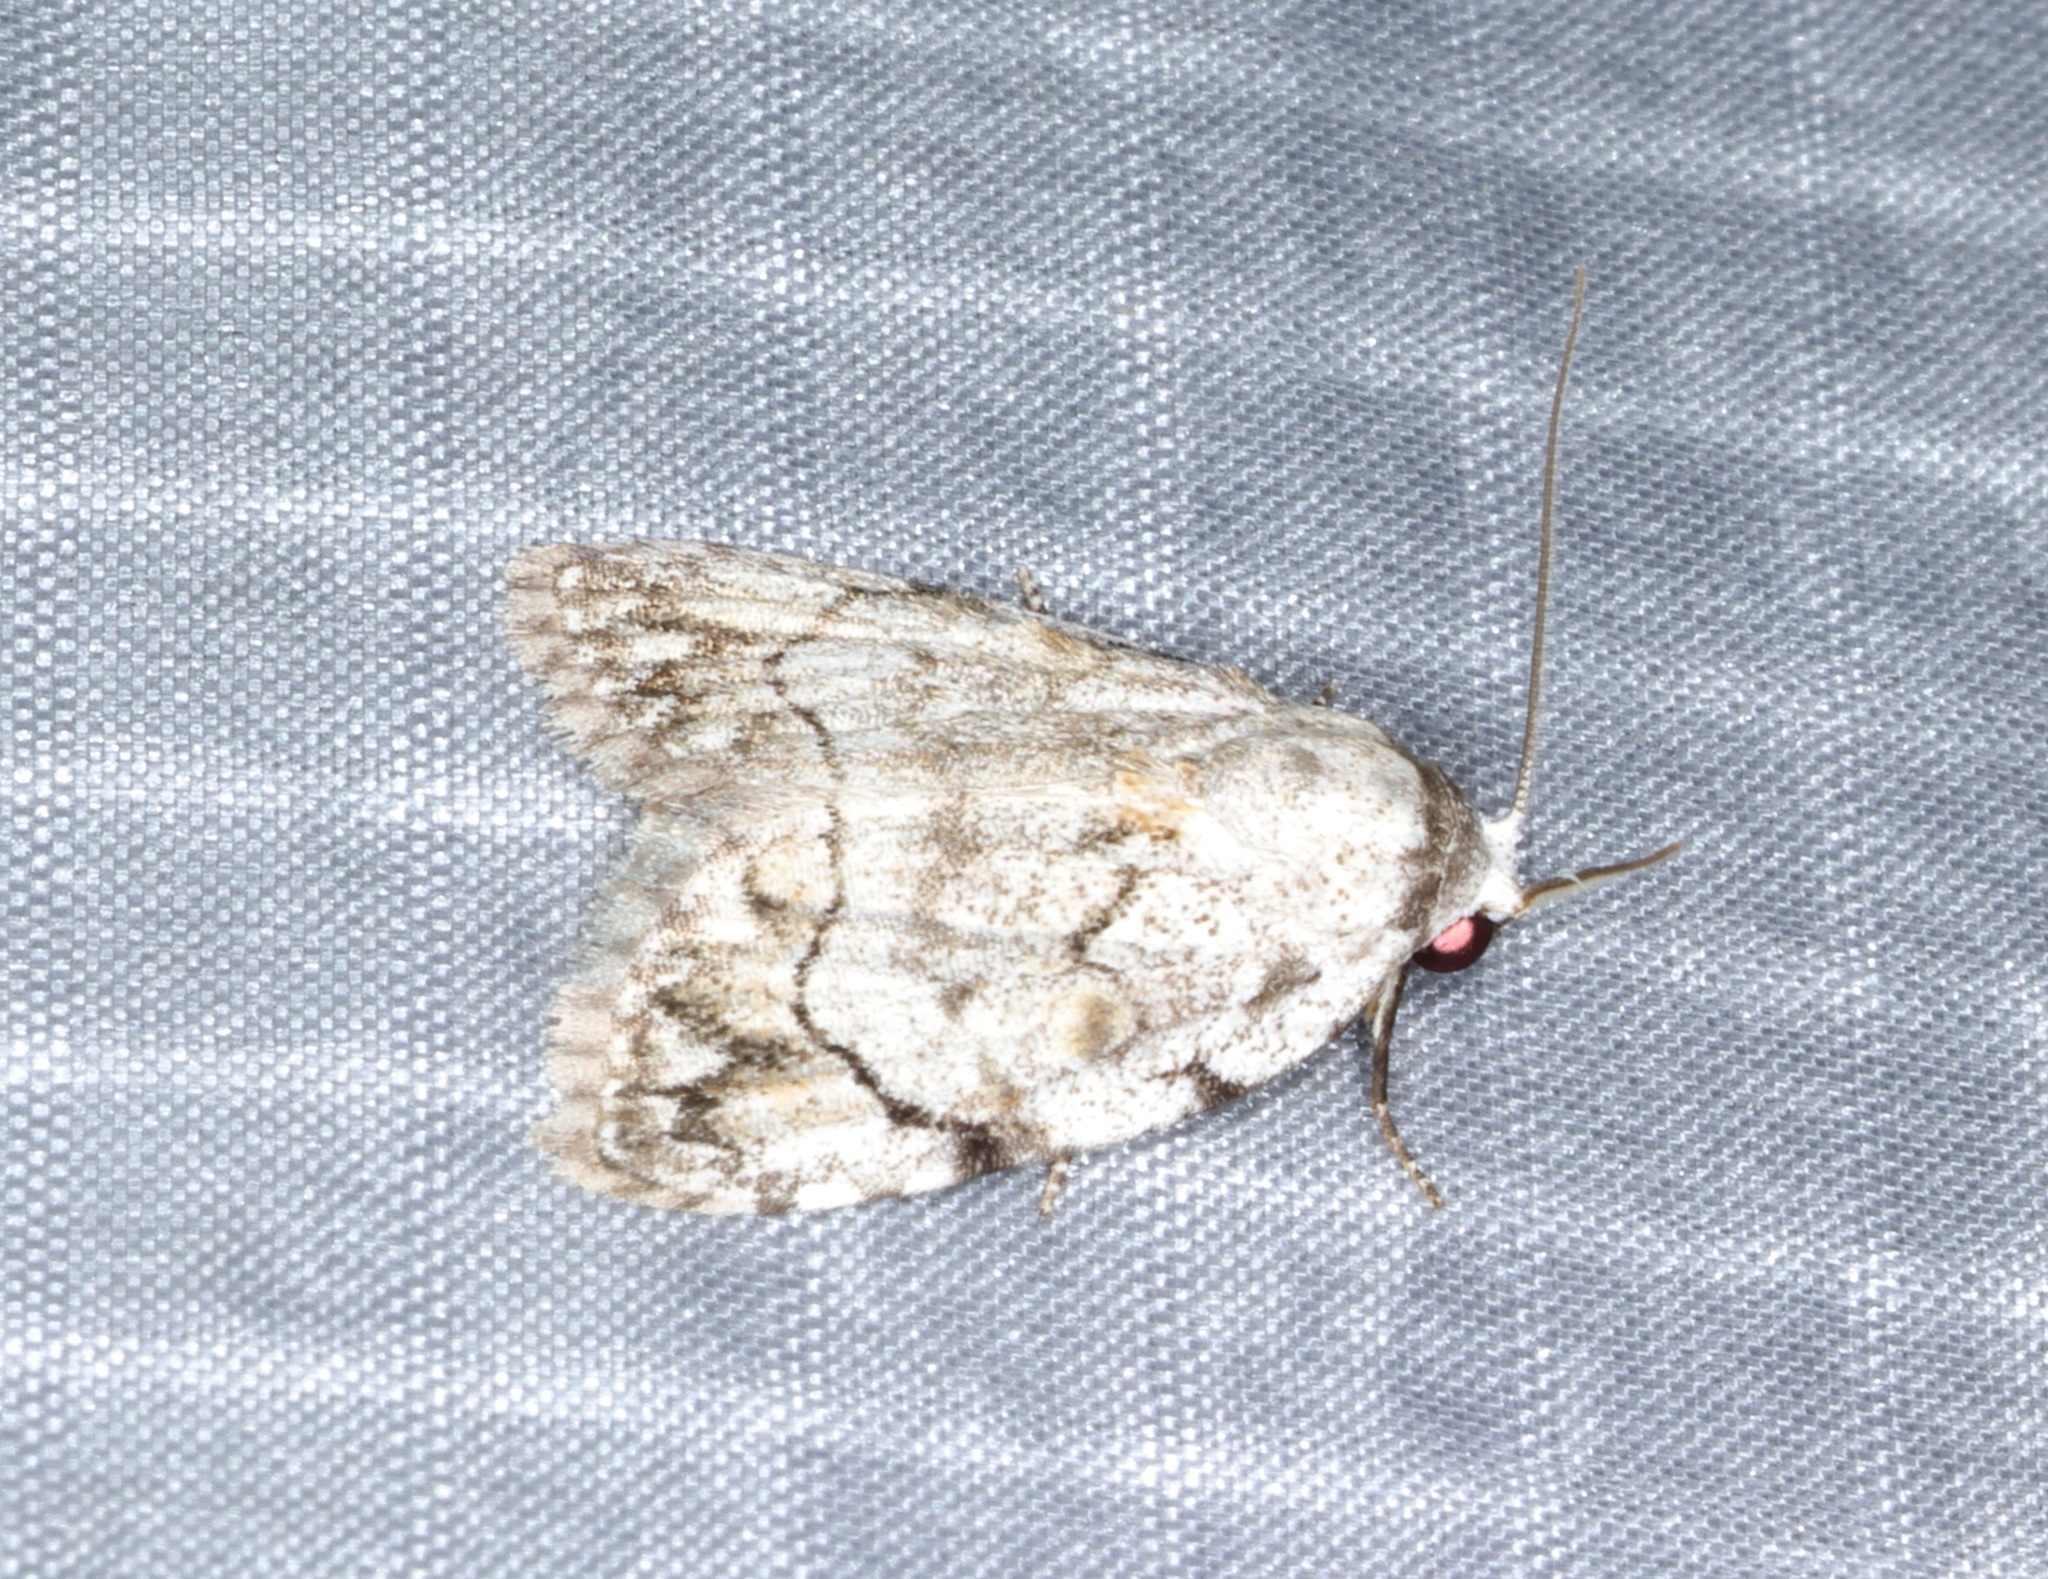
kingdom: Animalia
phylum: Arthropoda
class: Insecta
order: Lepidoptera
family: Nolidae
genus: Melanographia
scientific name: Melanographia flexilineata
